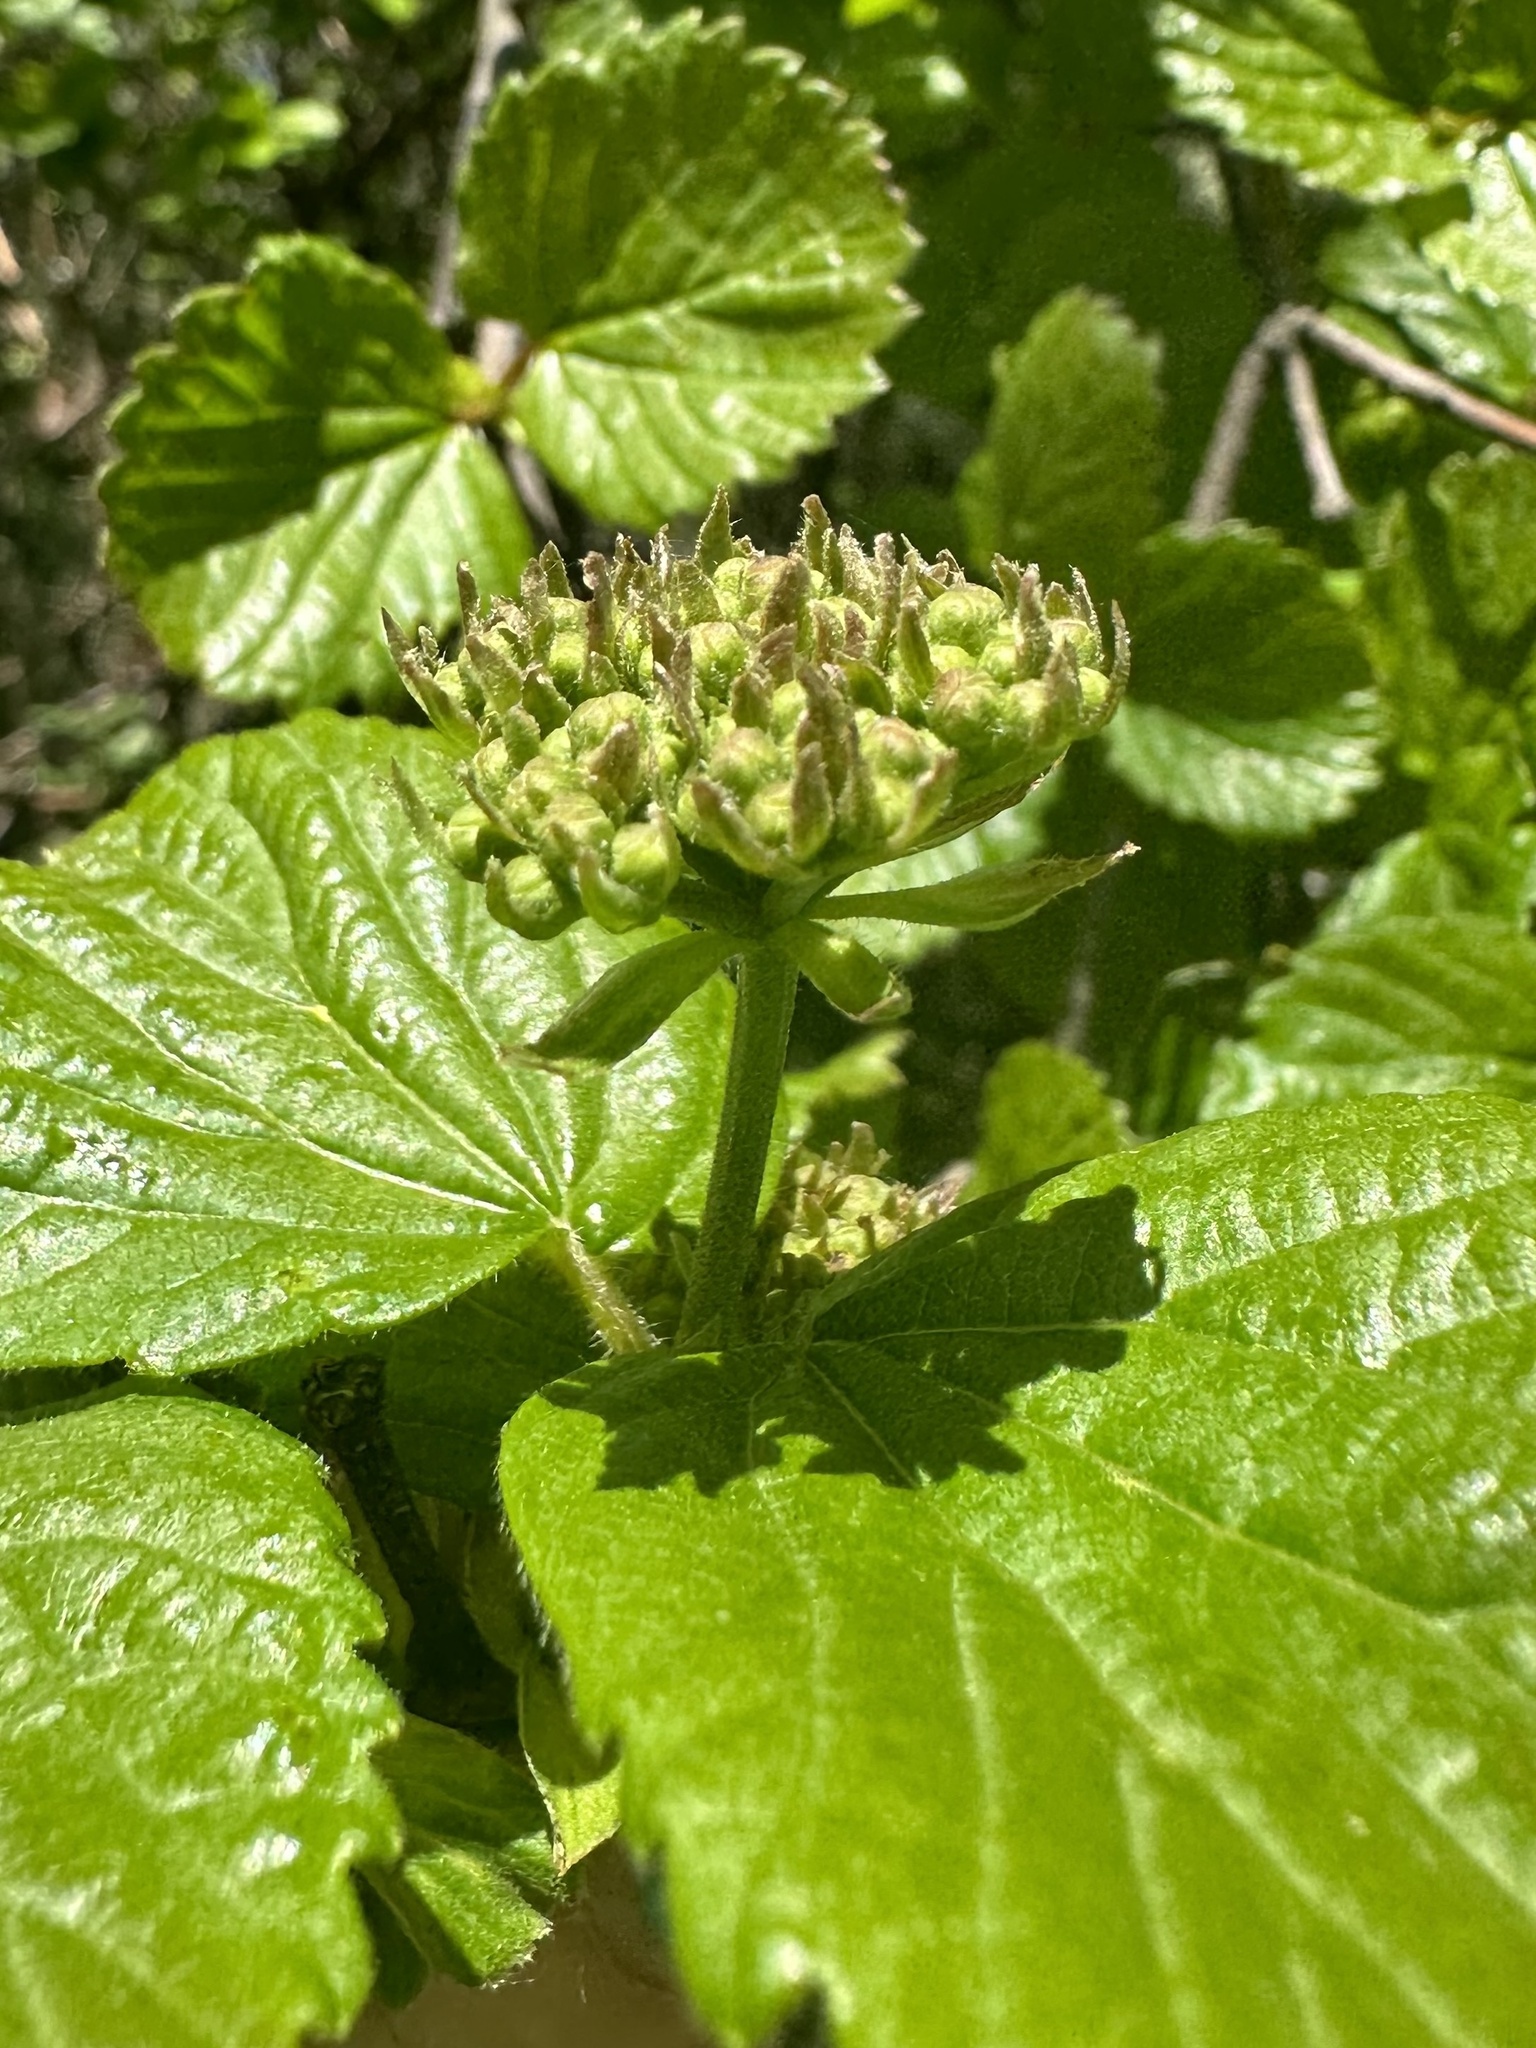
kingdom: Plantae
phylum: Tracheophyta
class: Magnoliopsida
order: Dipsacales
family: Viburnaceae
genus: Viburnum
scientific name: Viburnum ellipticum
